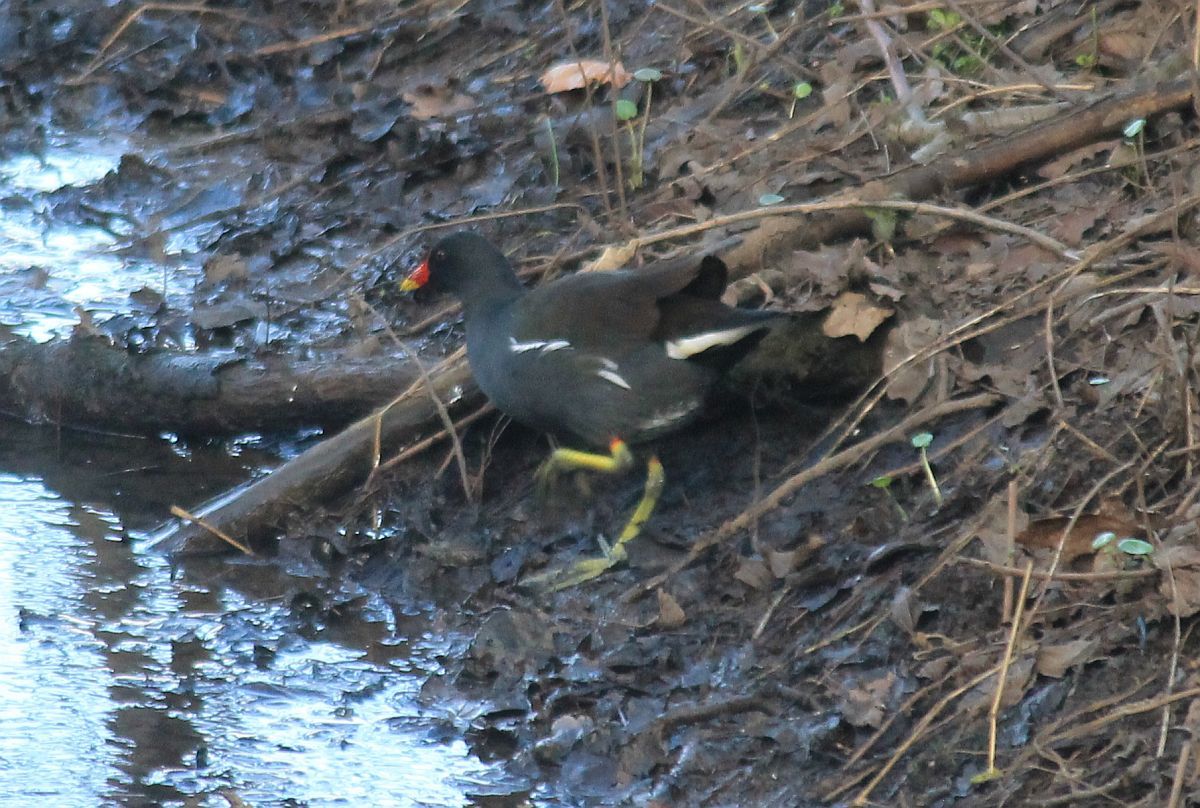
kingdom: Animalia
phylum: Chordata
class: Aves
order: Gruiformes
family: Rallidae
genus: Gallinula
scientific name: Gallinula chloropus
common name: Common moorhen
